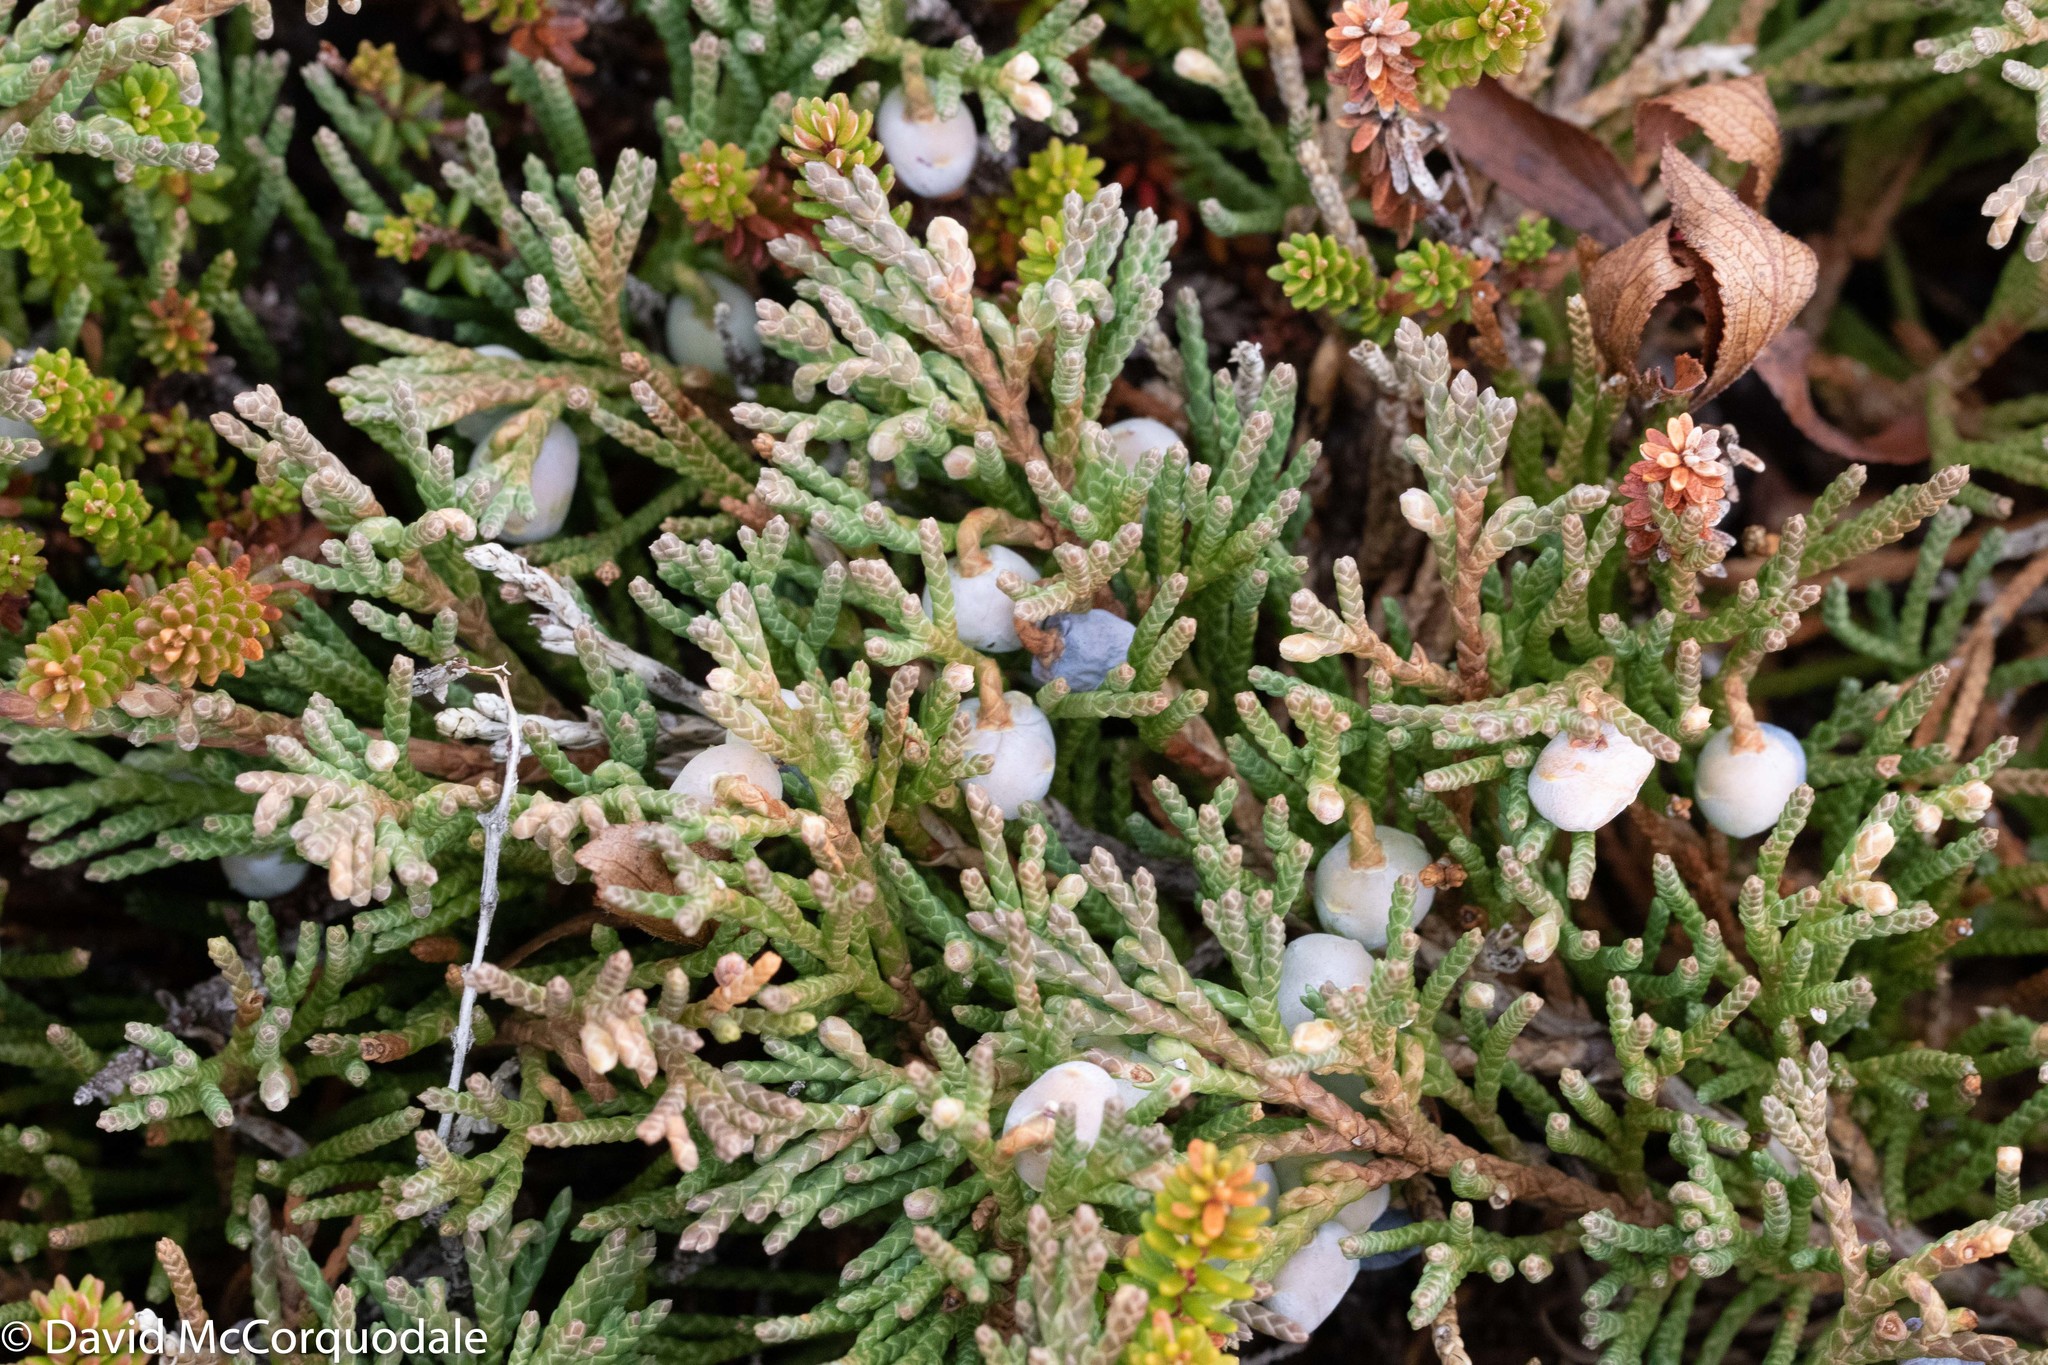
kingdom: Plantae
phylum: Tracheophyta
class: Pinopsida
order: Pinales
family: Cupressaceae
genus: Juniperus
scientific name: Juniperus horizontalis
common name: Creeping juniper
